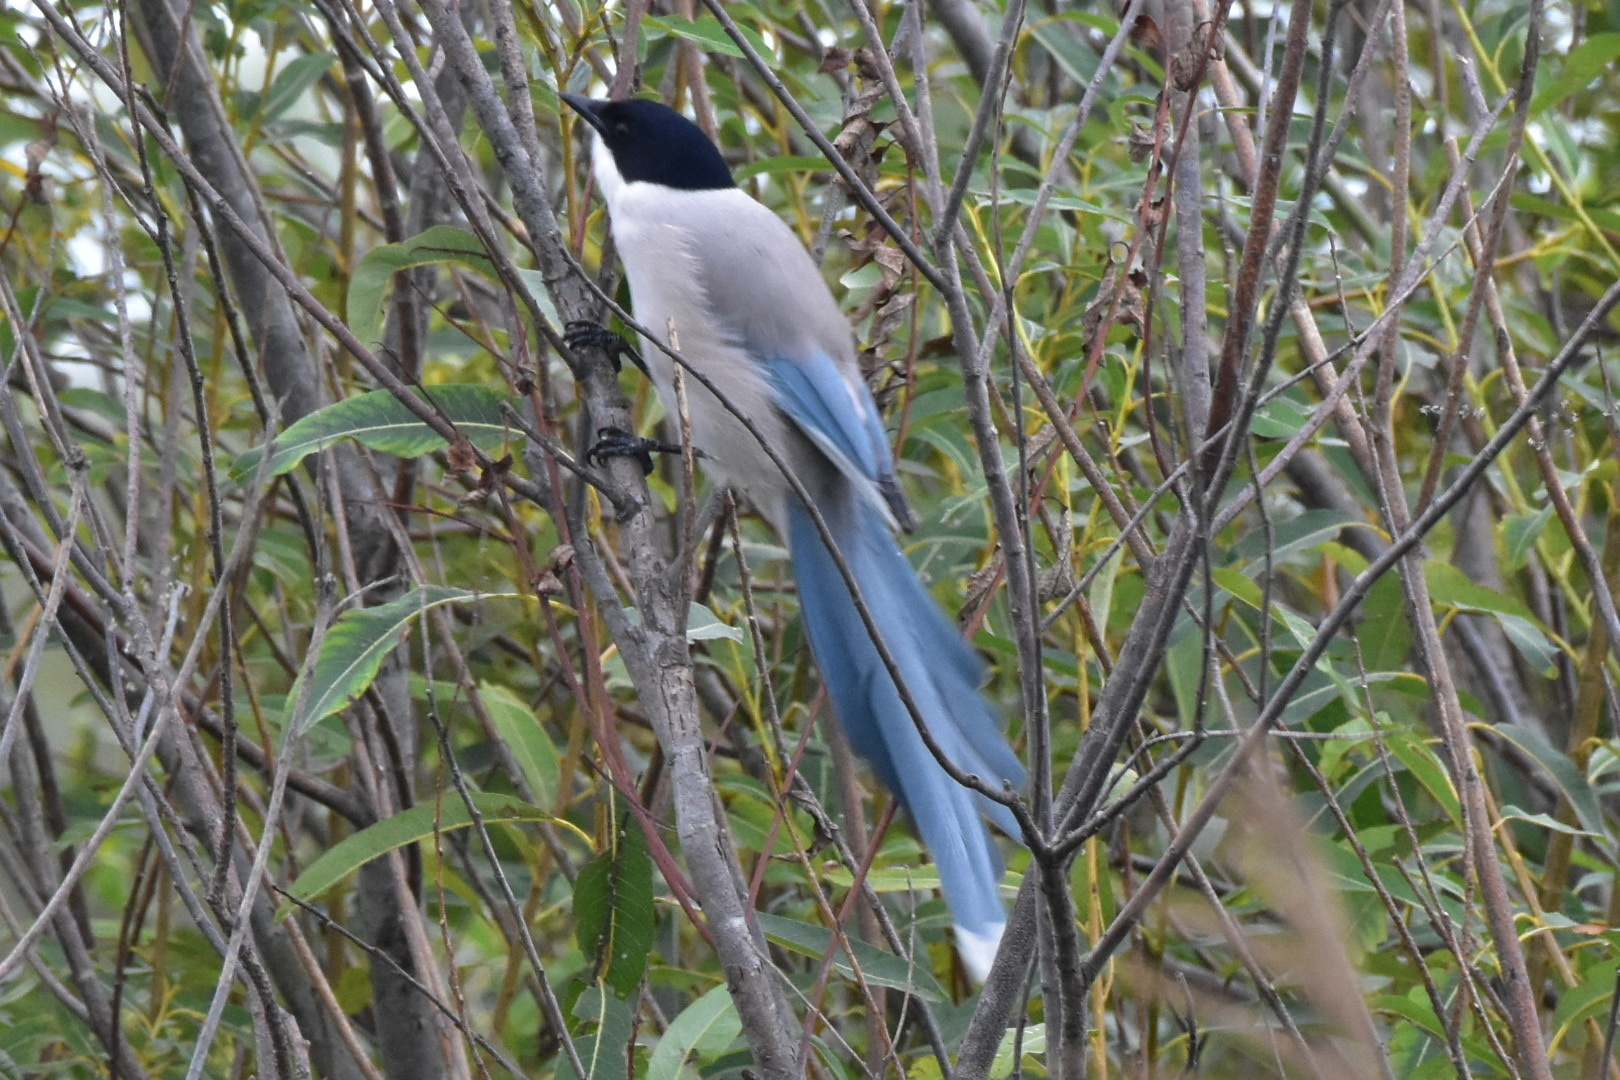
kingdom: Animalia
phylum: Chordata
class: Aves
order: Passeriformes
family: Corvidae
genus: Cyanopica
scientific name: Cyanopica cyanus
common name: Azure-winged magpie
